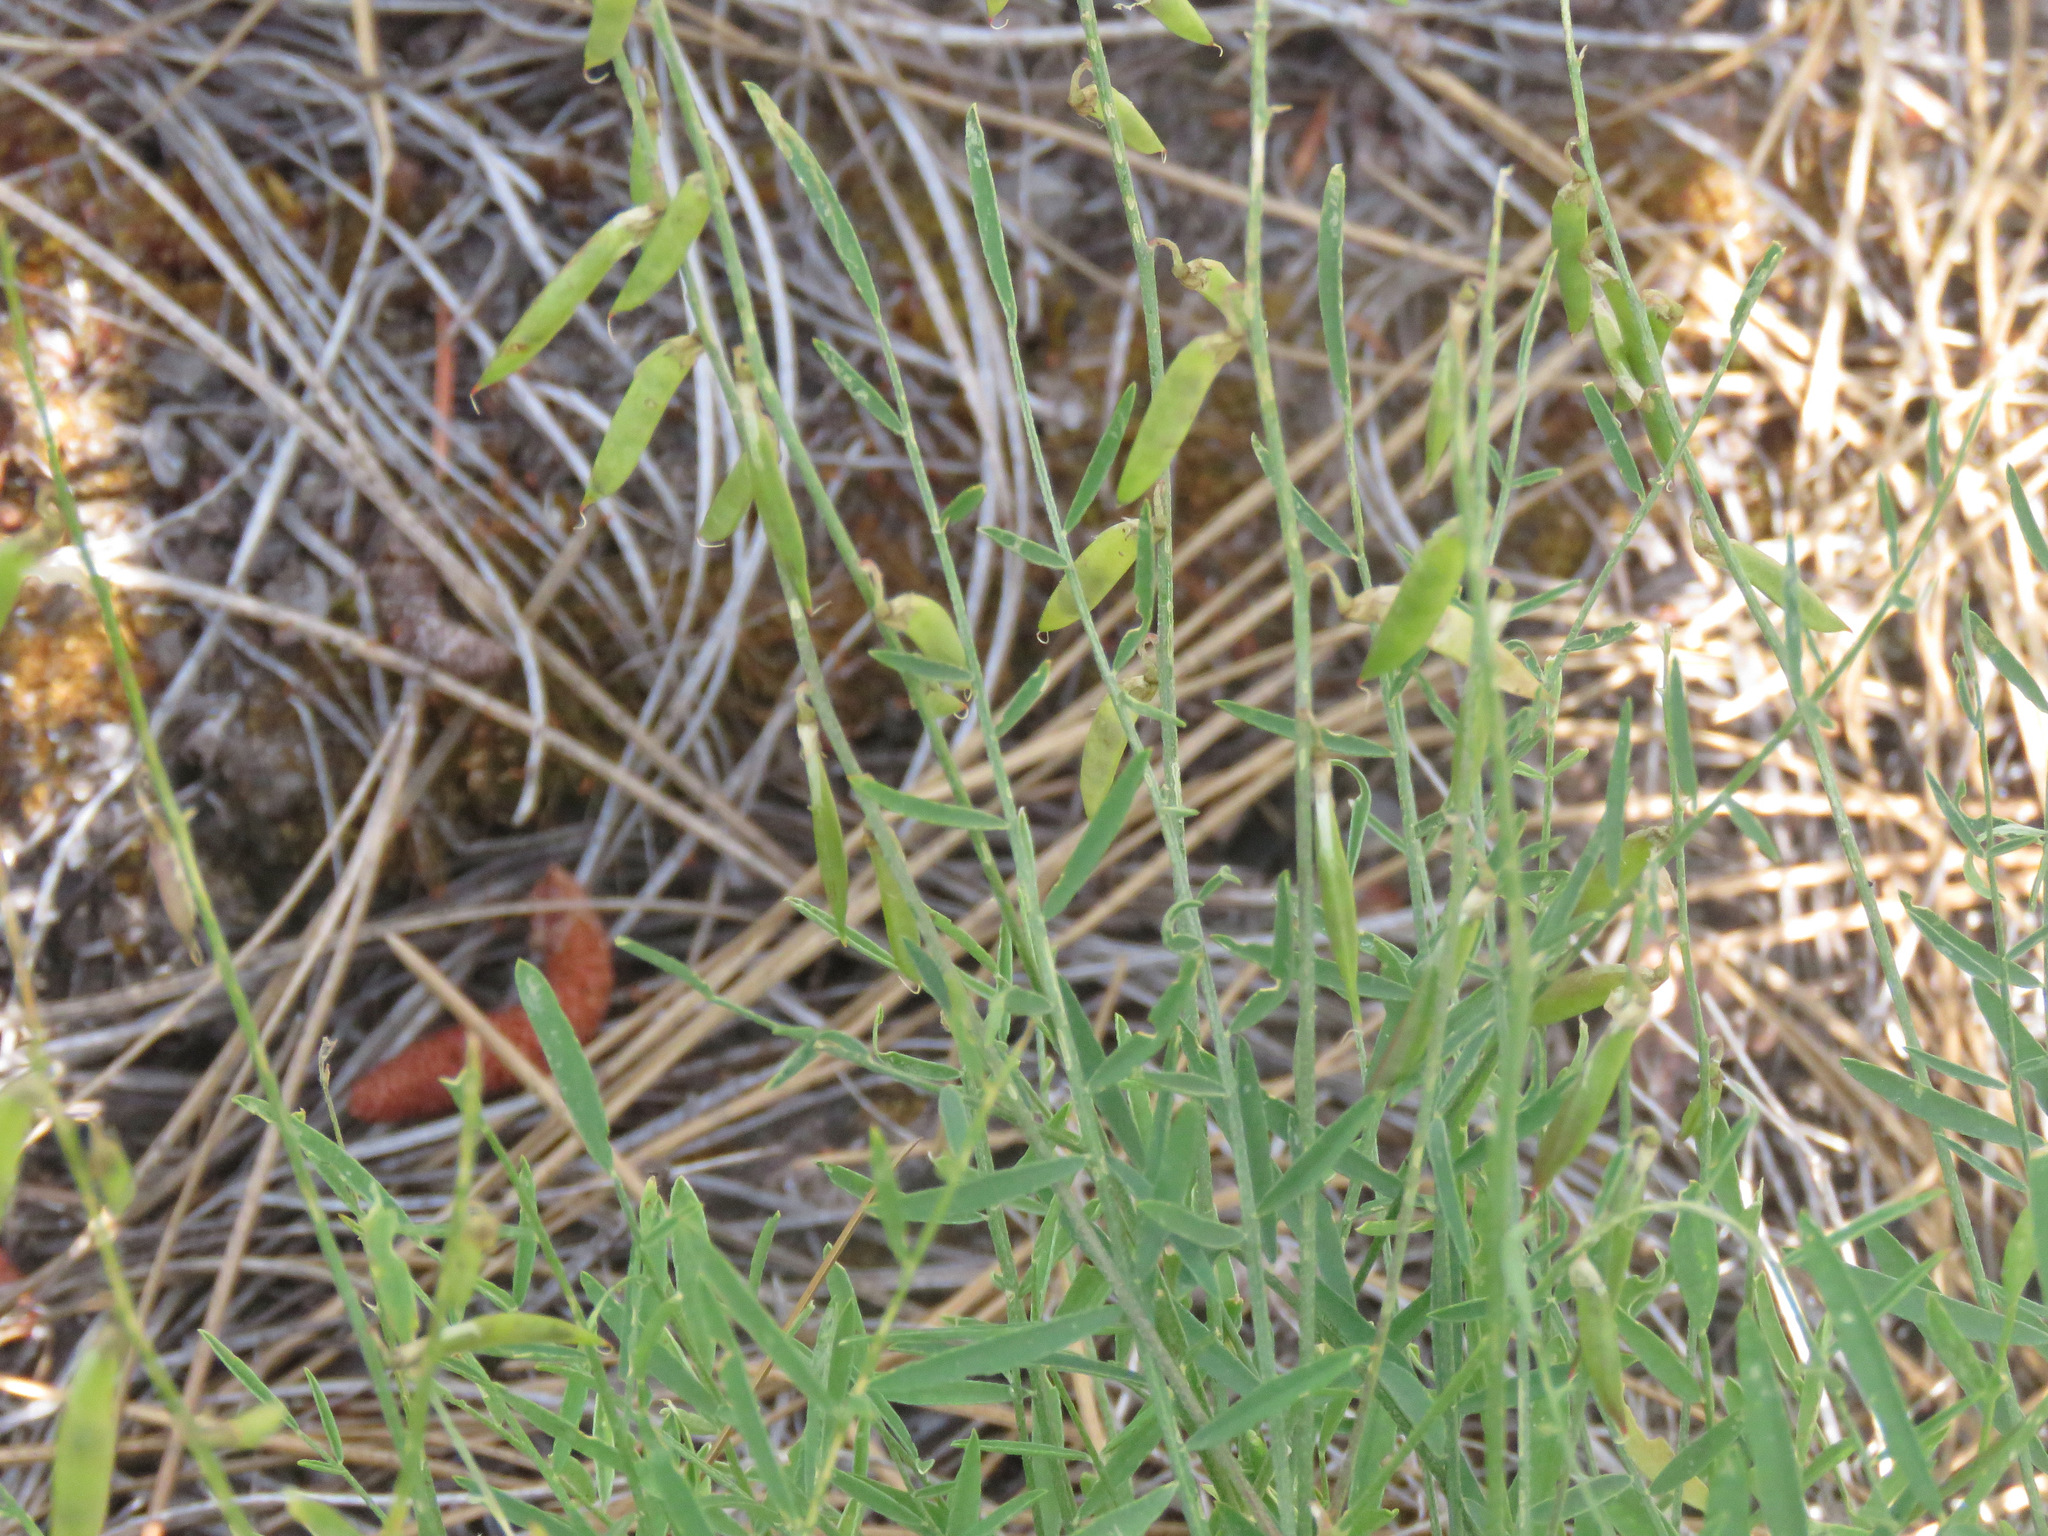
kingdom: Plantae
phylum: Tracheophyta
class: Magnoliopsida
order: Fabales
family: Fabaceae
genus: Astragalus
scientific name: Astragalus miser
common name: Timber milkvetch
